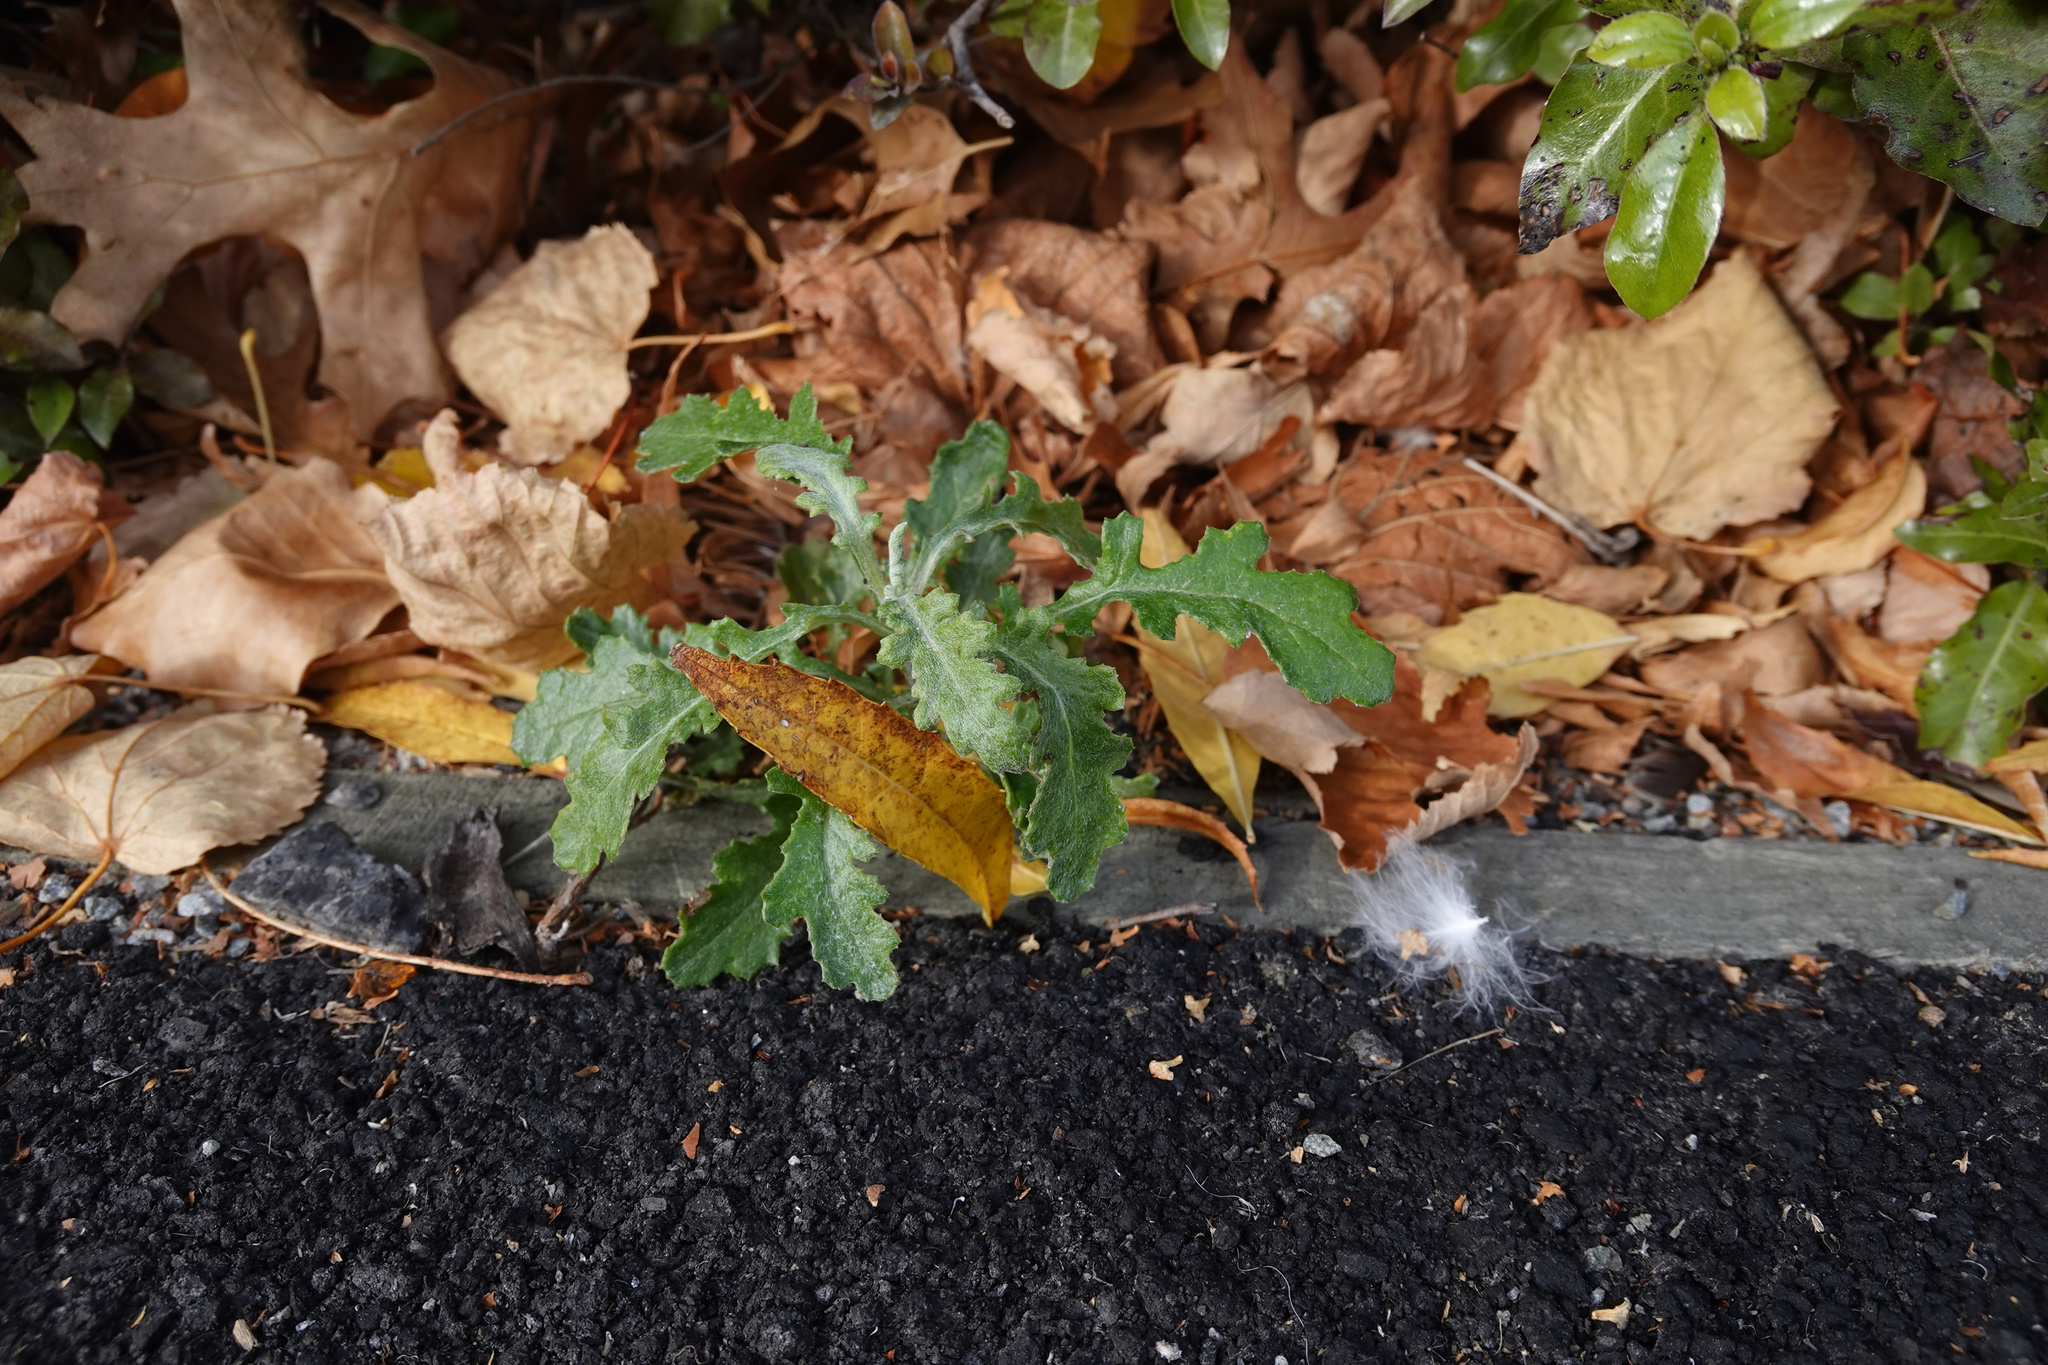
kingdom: Plantae
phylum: Tracheophyta
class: Magnoliopsida
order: Asterales
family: Asteraceae
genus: Senecio
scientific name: Senecio glomeratus
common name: Cutleaf burnweed
